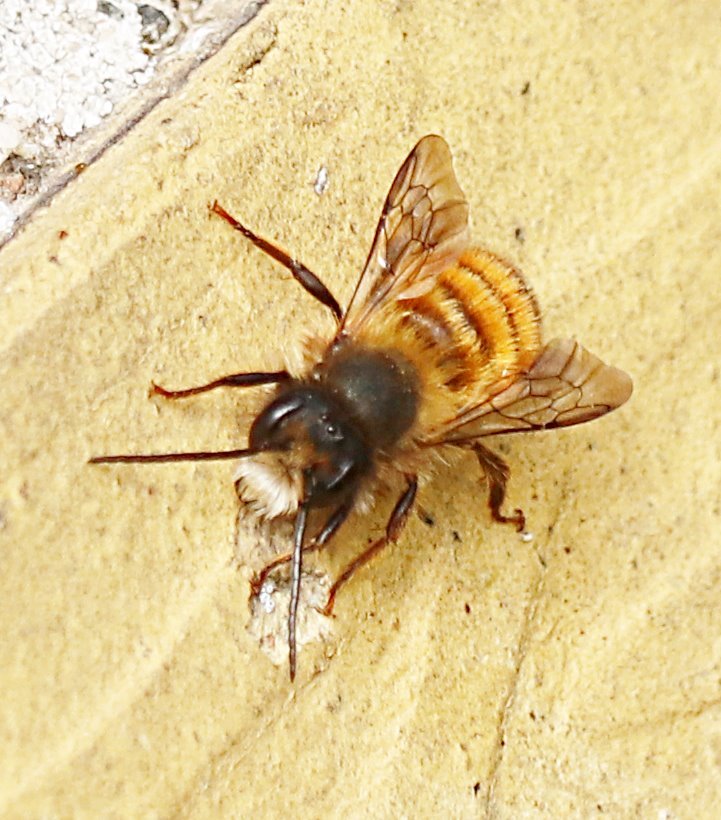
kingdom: Animalia
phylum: Arthropoda
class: Insecta
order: Hymenoptera
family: Megachilidae
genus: Osmia
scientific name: Osmia bicornis
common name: Red mason bee
